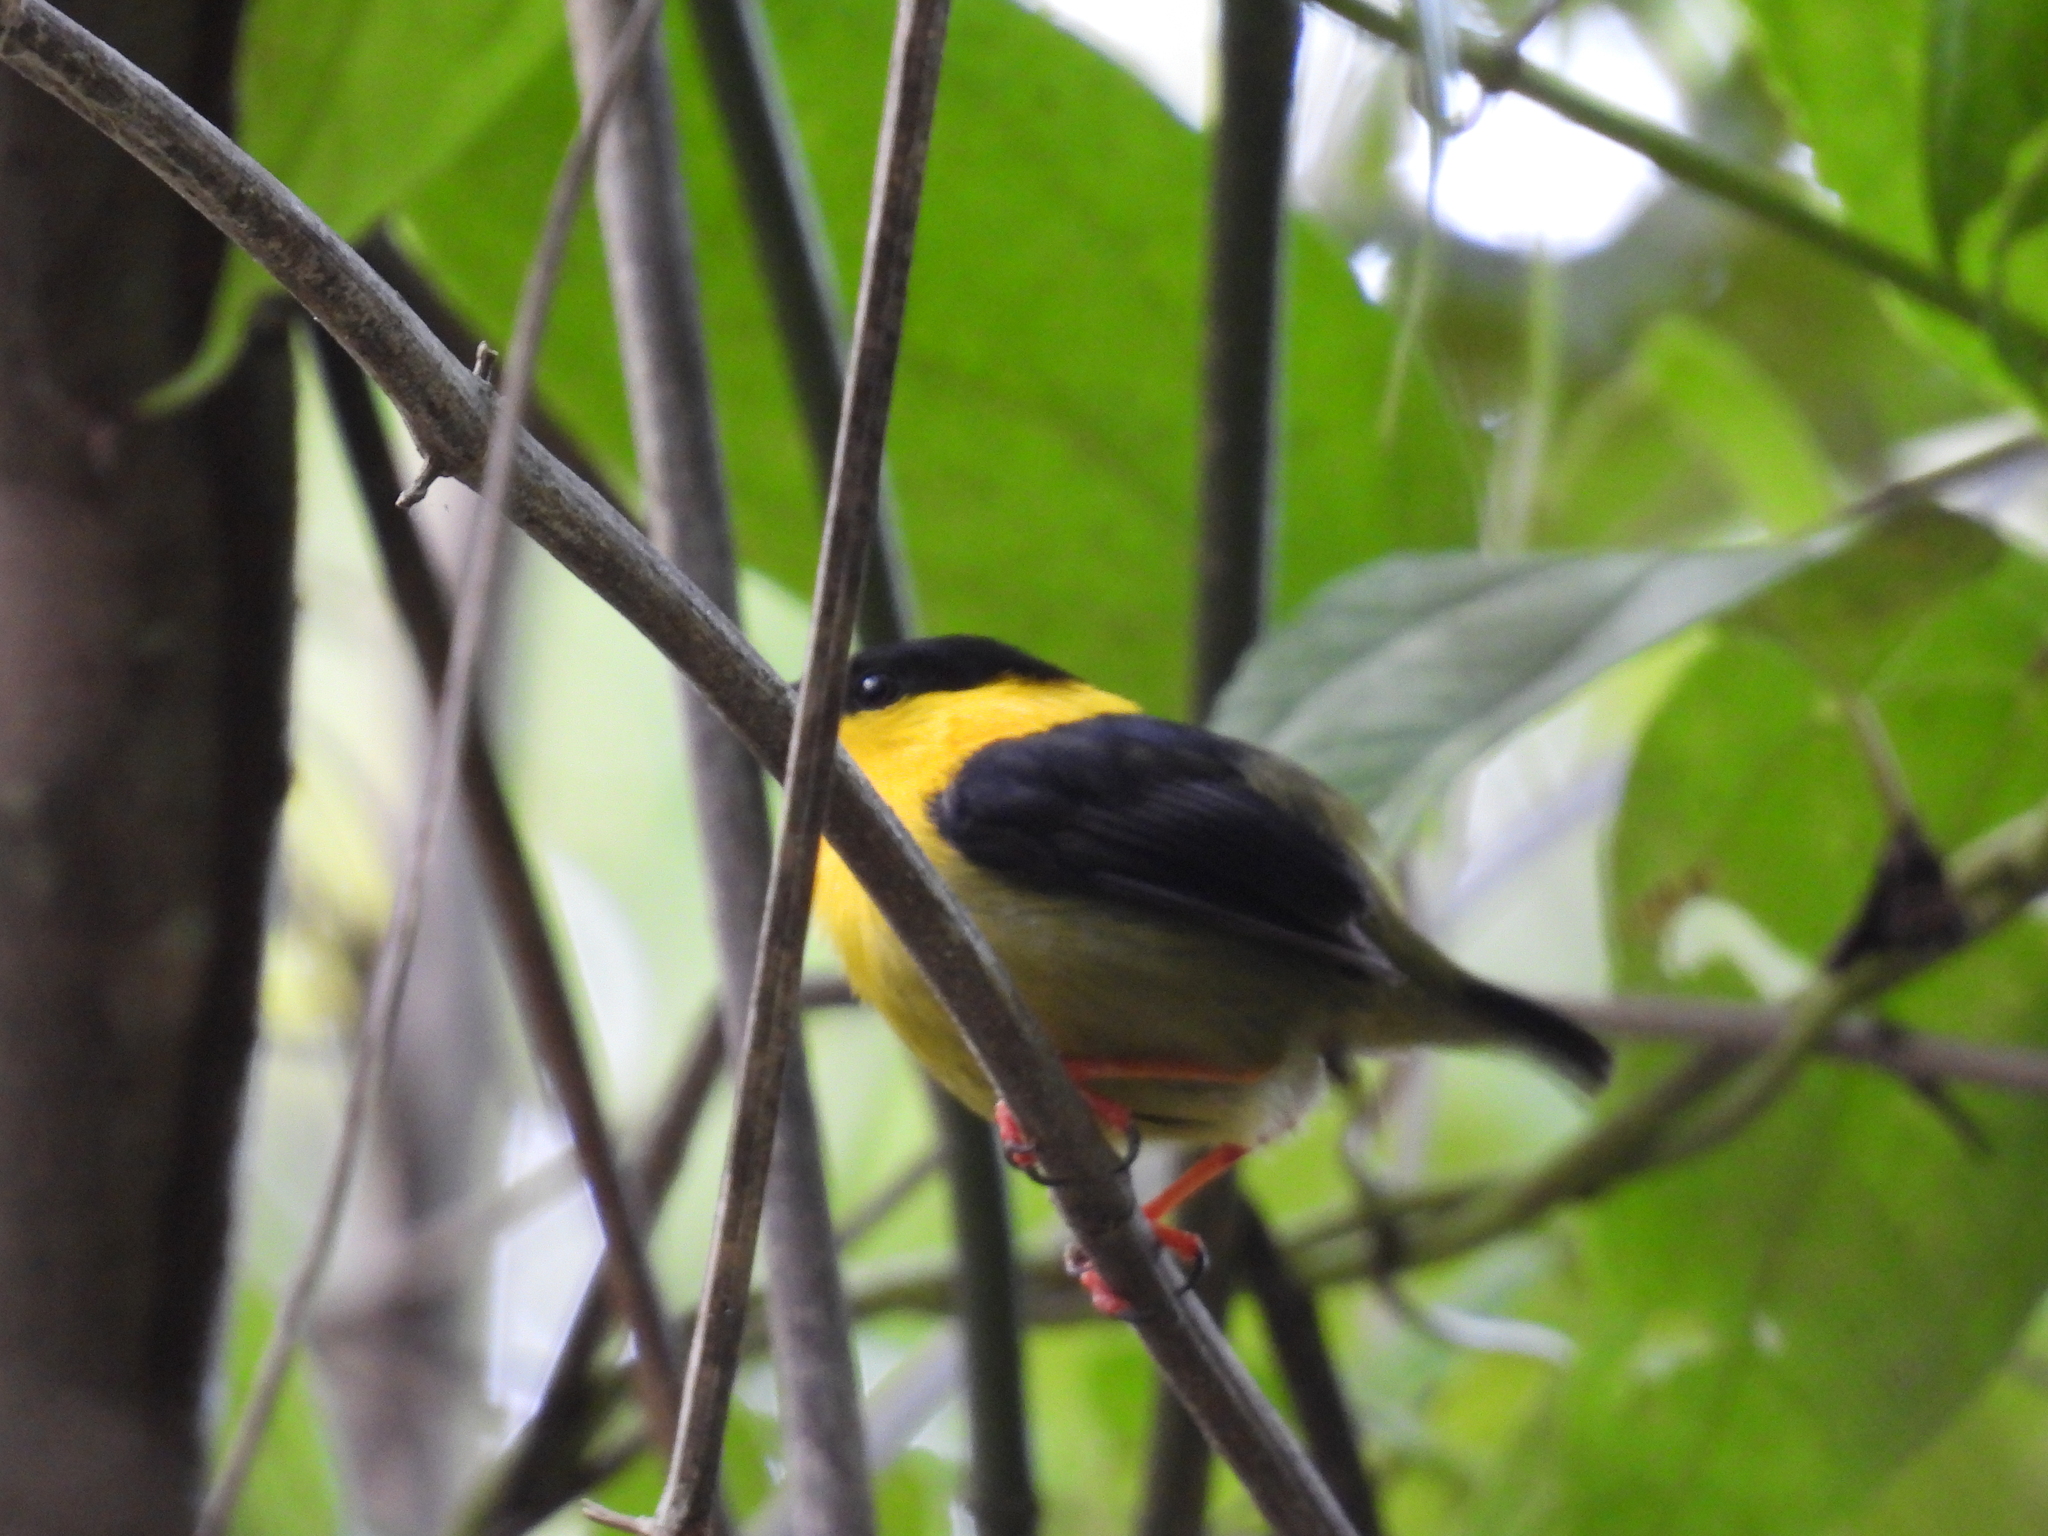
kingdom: Animalia
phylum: Chordata
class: Aves
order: Passeriformes
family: Pipridae
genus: Manacus
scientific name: Manacus vitellinus
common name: Golden-collared manakin
